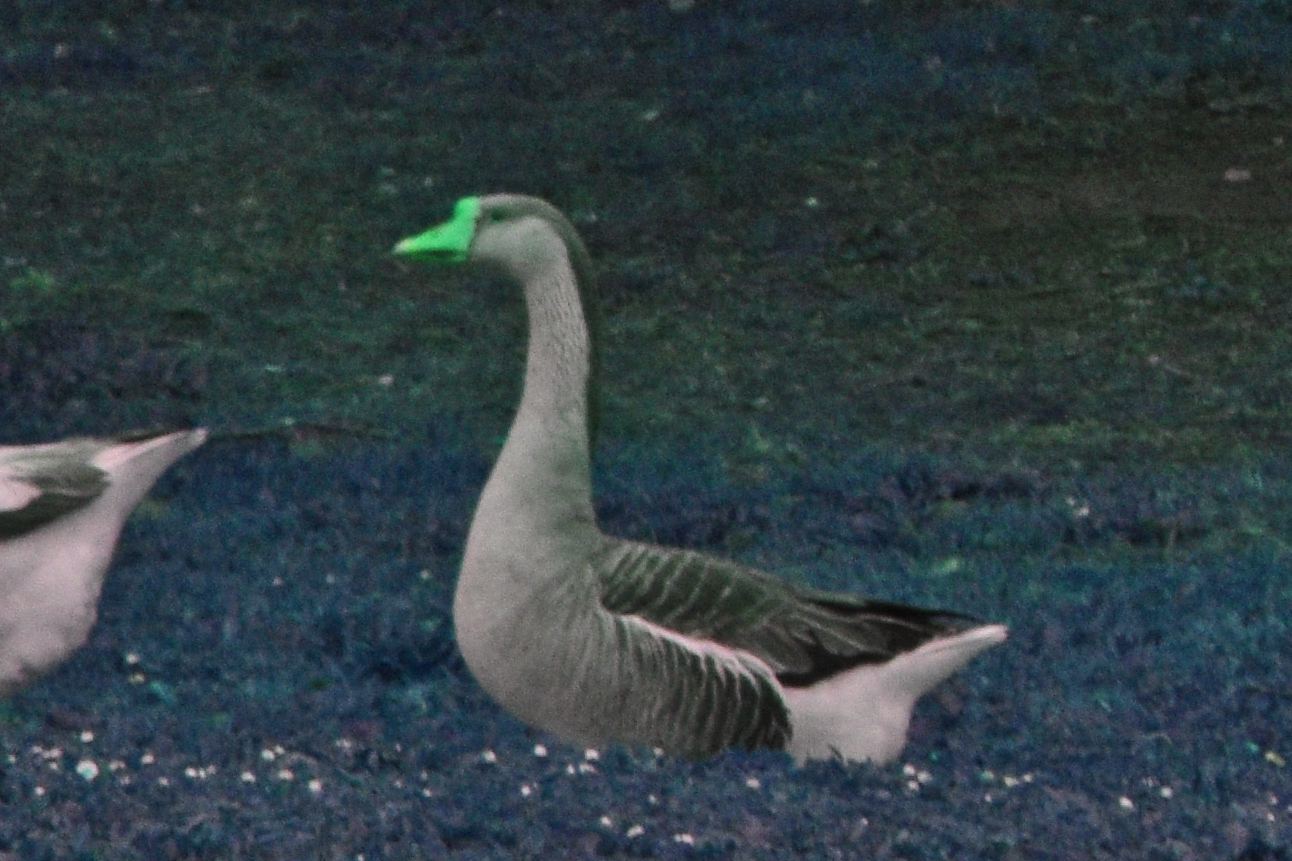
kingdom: Animalia
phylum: Chordata
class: Aves
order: Anseriformes
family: Anatidae
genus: Anser
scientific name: Anser
